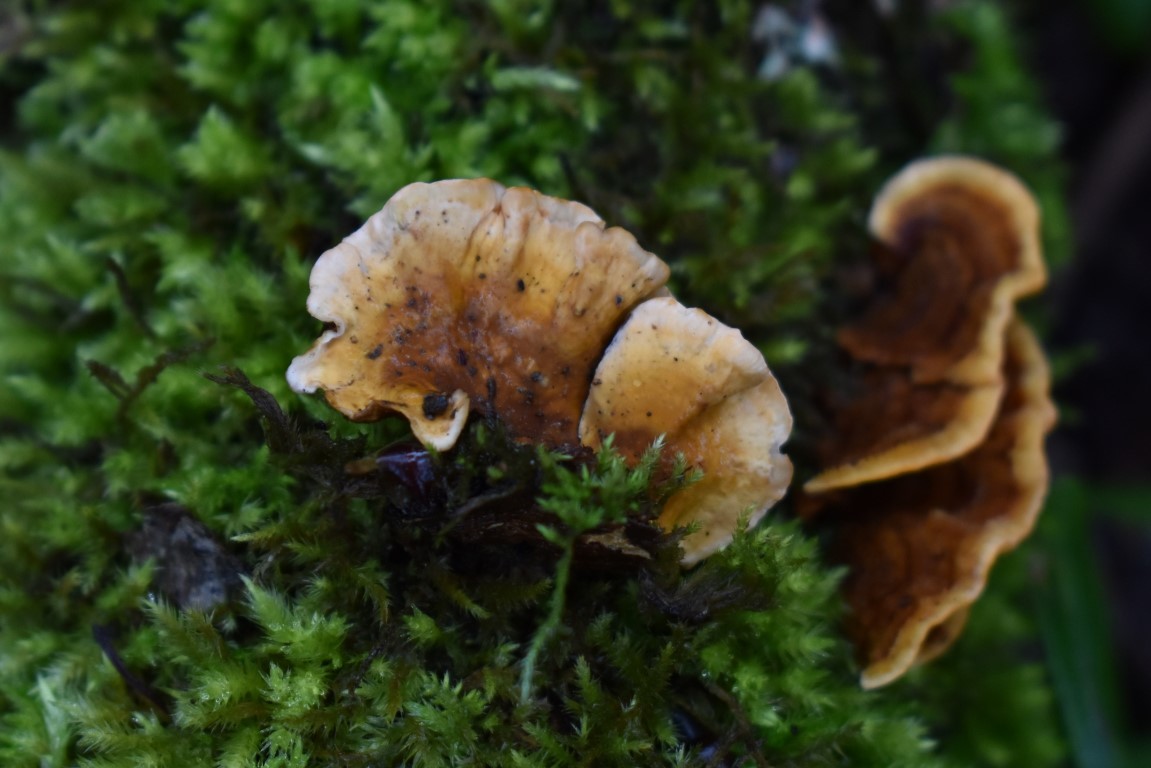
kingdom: Fungi
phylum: Basidiomycota
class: Agaricomycetes
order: Russulales
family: Stereaceae
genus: Stereum
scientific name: Stereum hirsutum
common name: Hairy curtain crust
